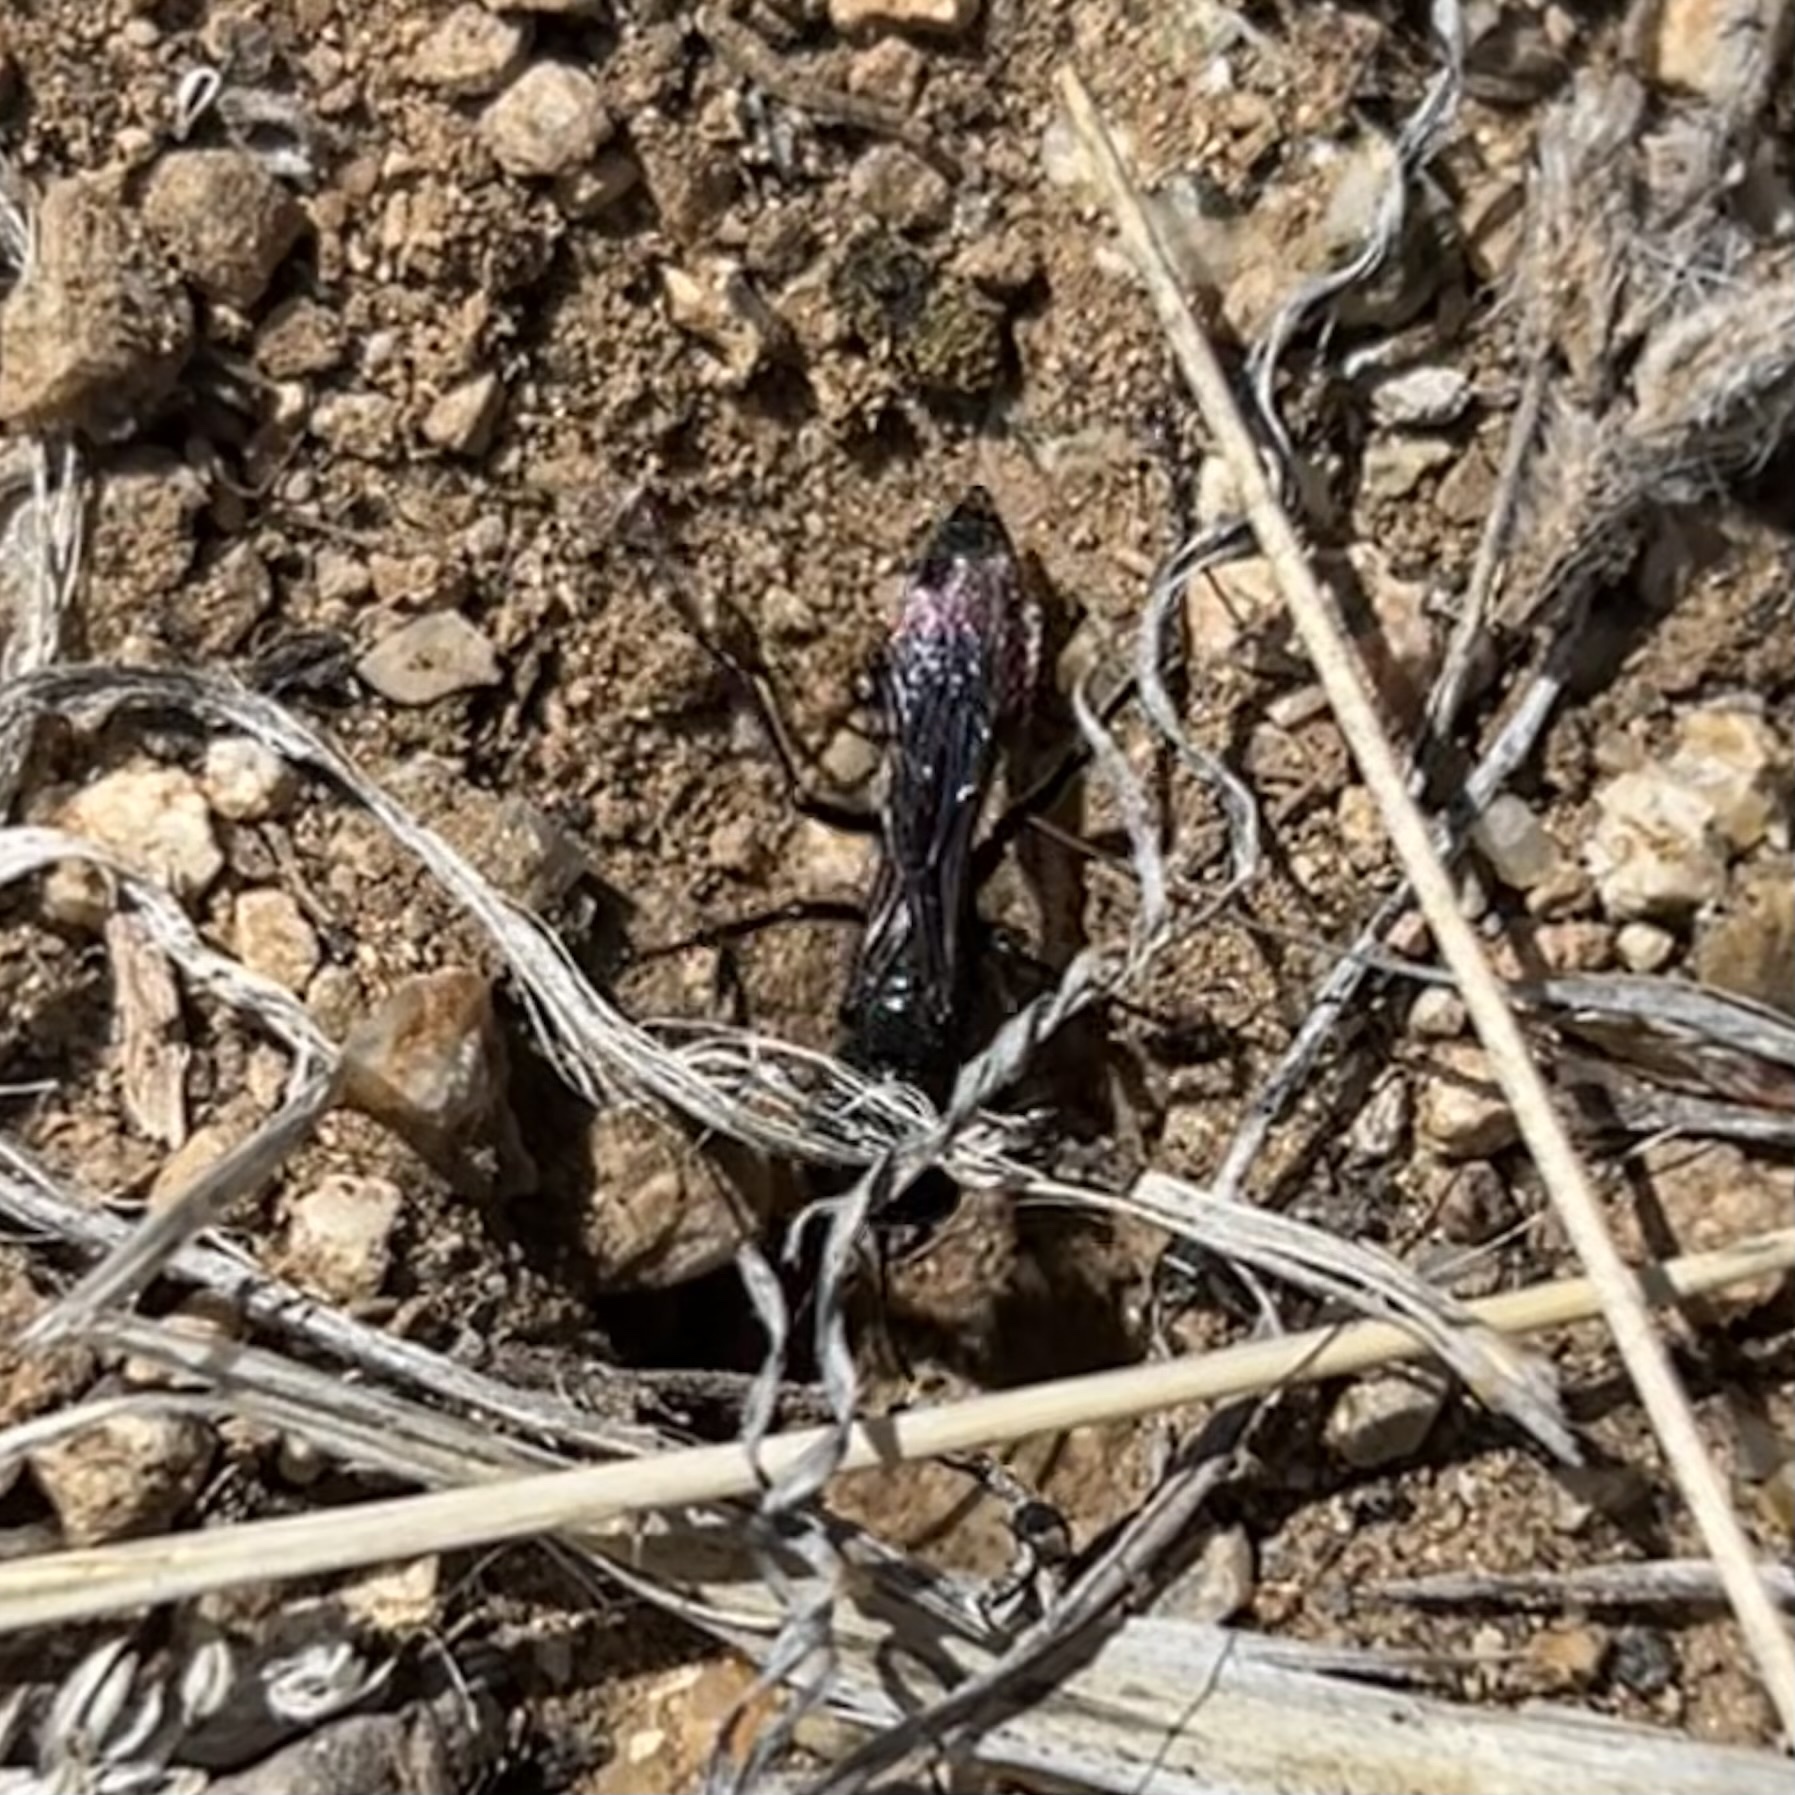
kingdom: Animalia
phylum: Arthropoda
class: Insecta
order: Hymenoptera
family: Sphecidae
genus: Podalonia
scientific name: Podalonia
